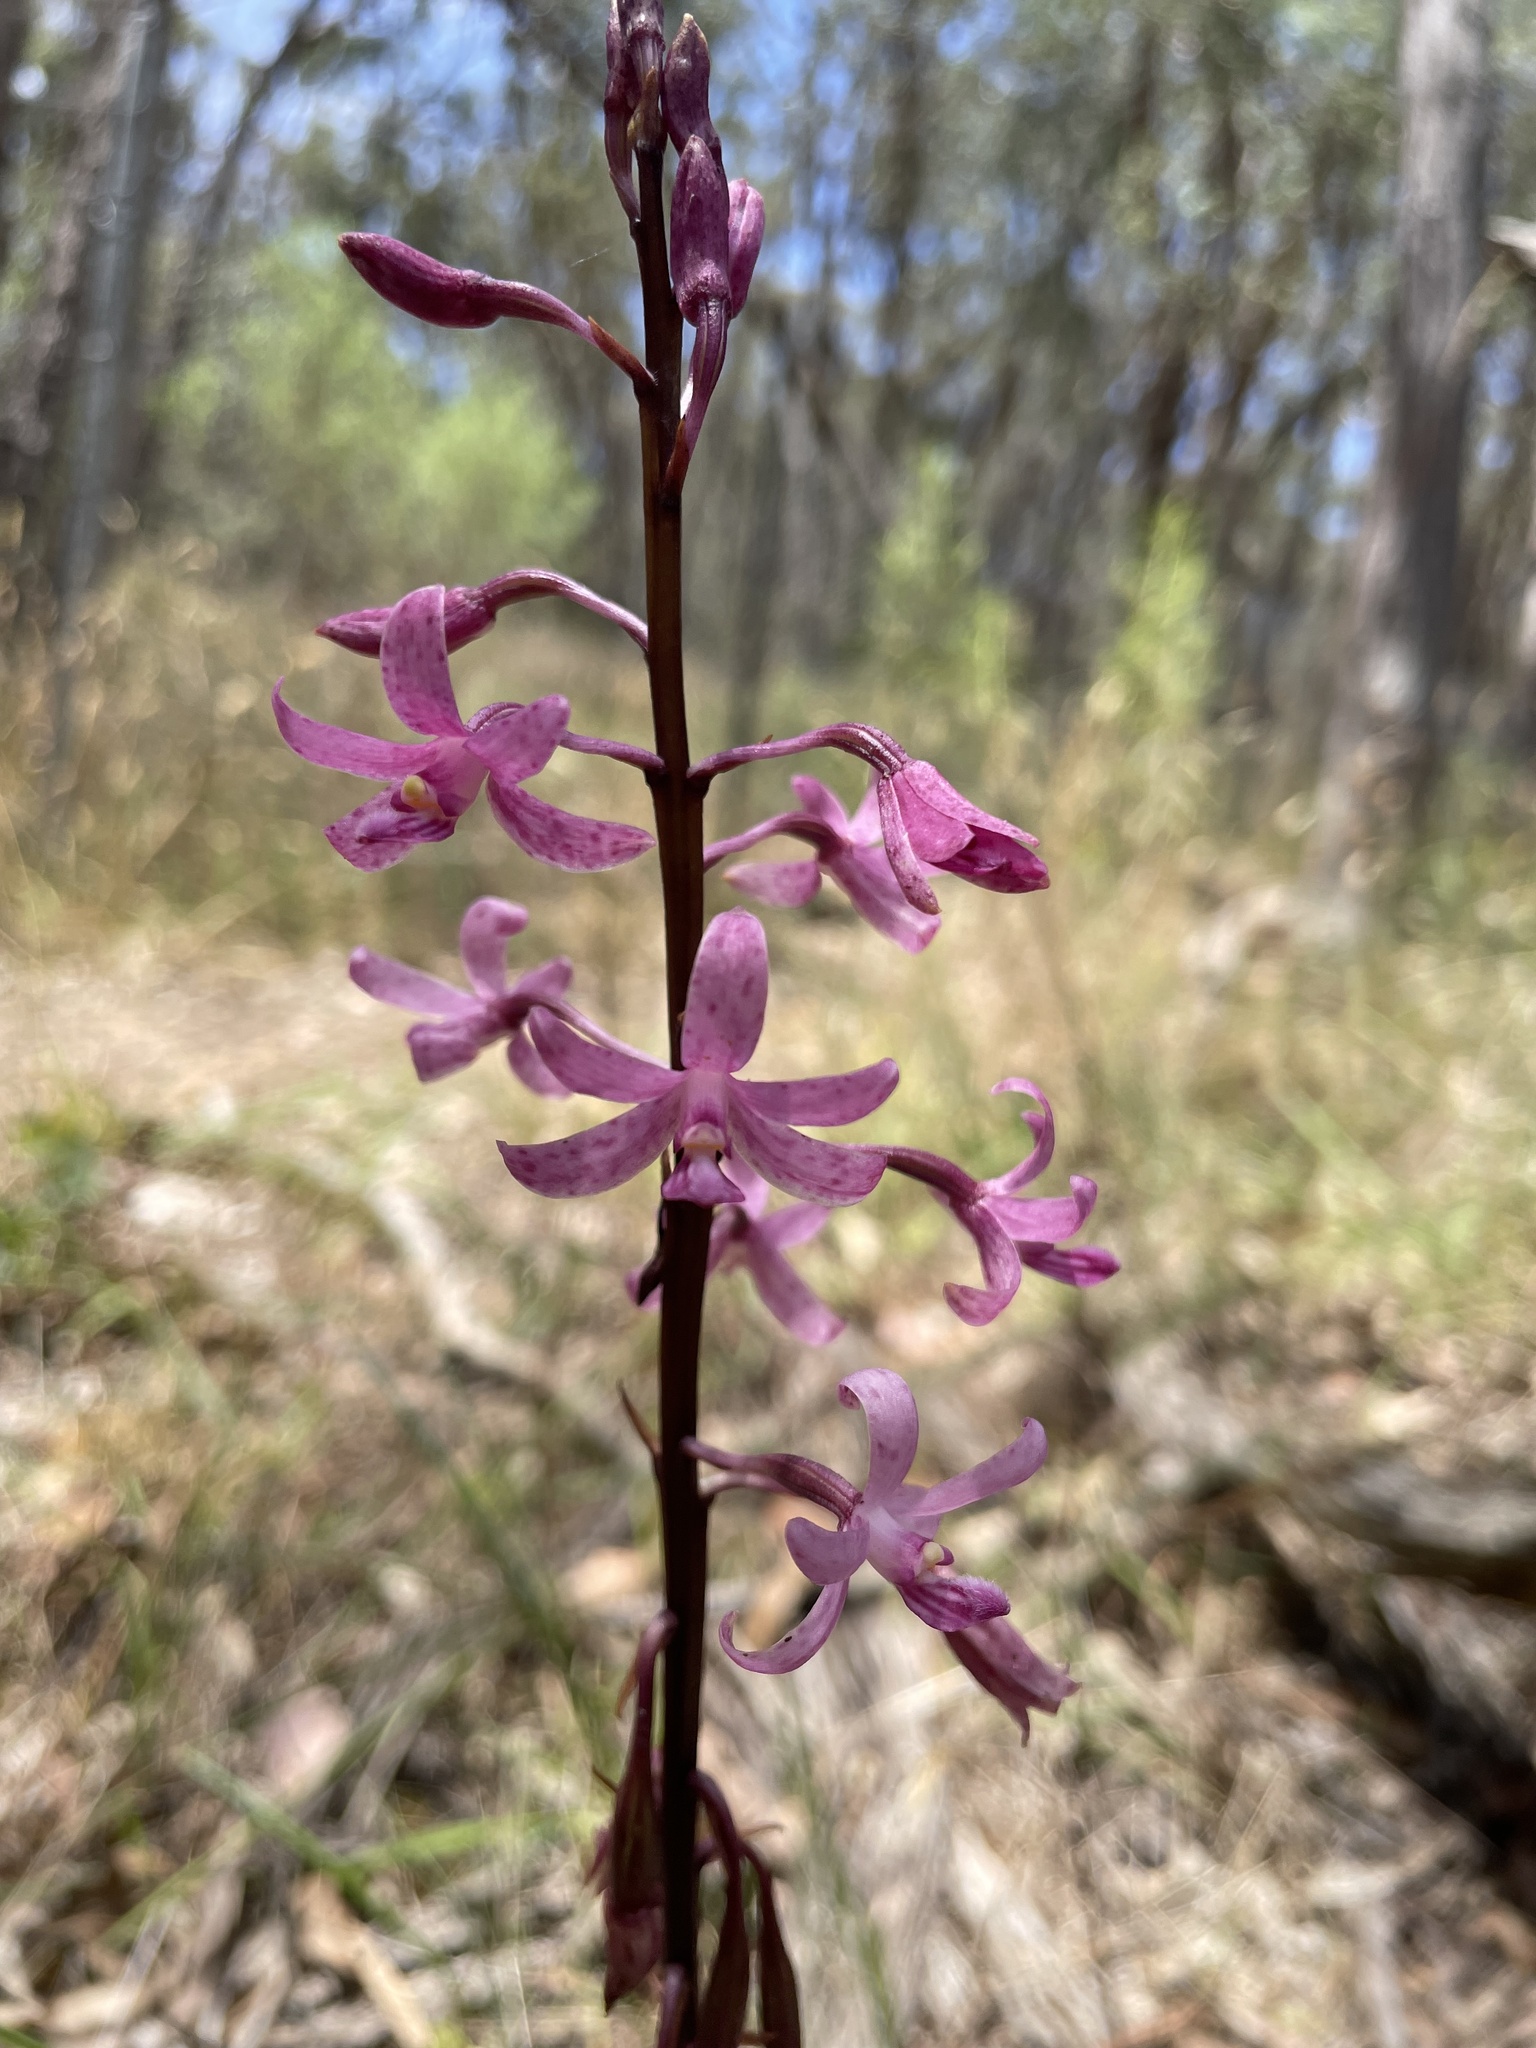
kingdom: Plantae
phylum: Tracheophyta
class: Liliopsida
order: Asparagales
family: Orchidaceae
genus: Dipodium
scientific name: Dipodium roseum
